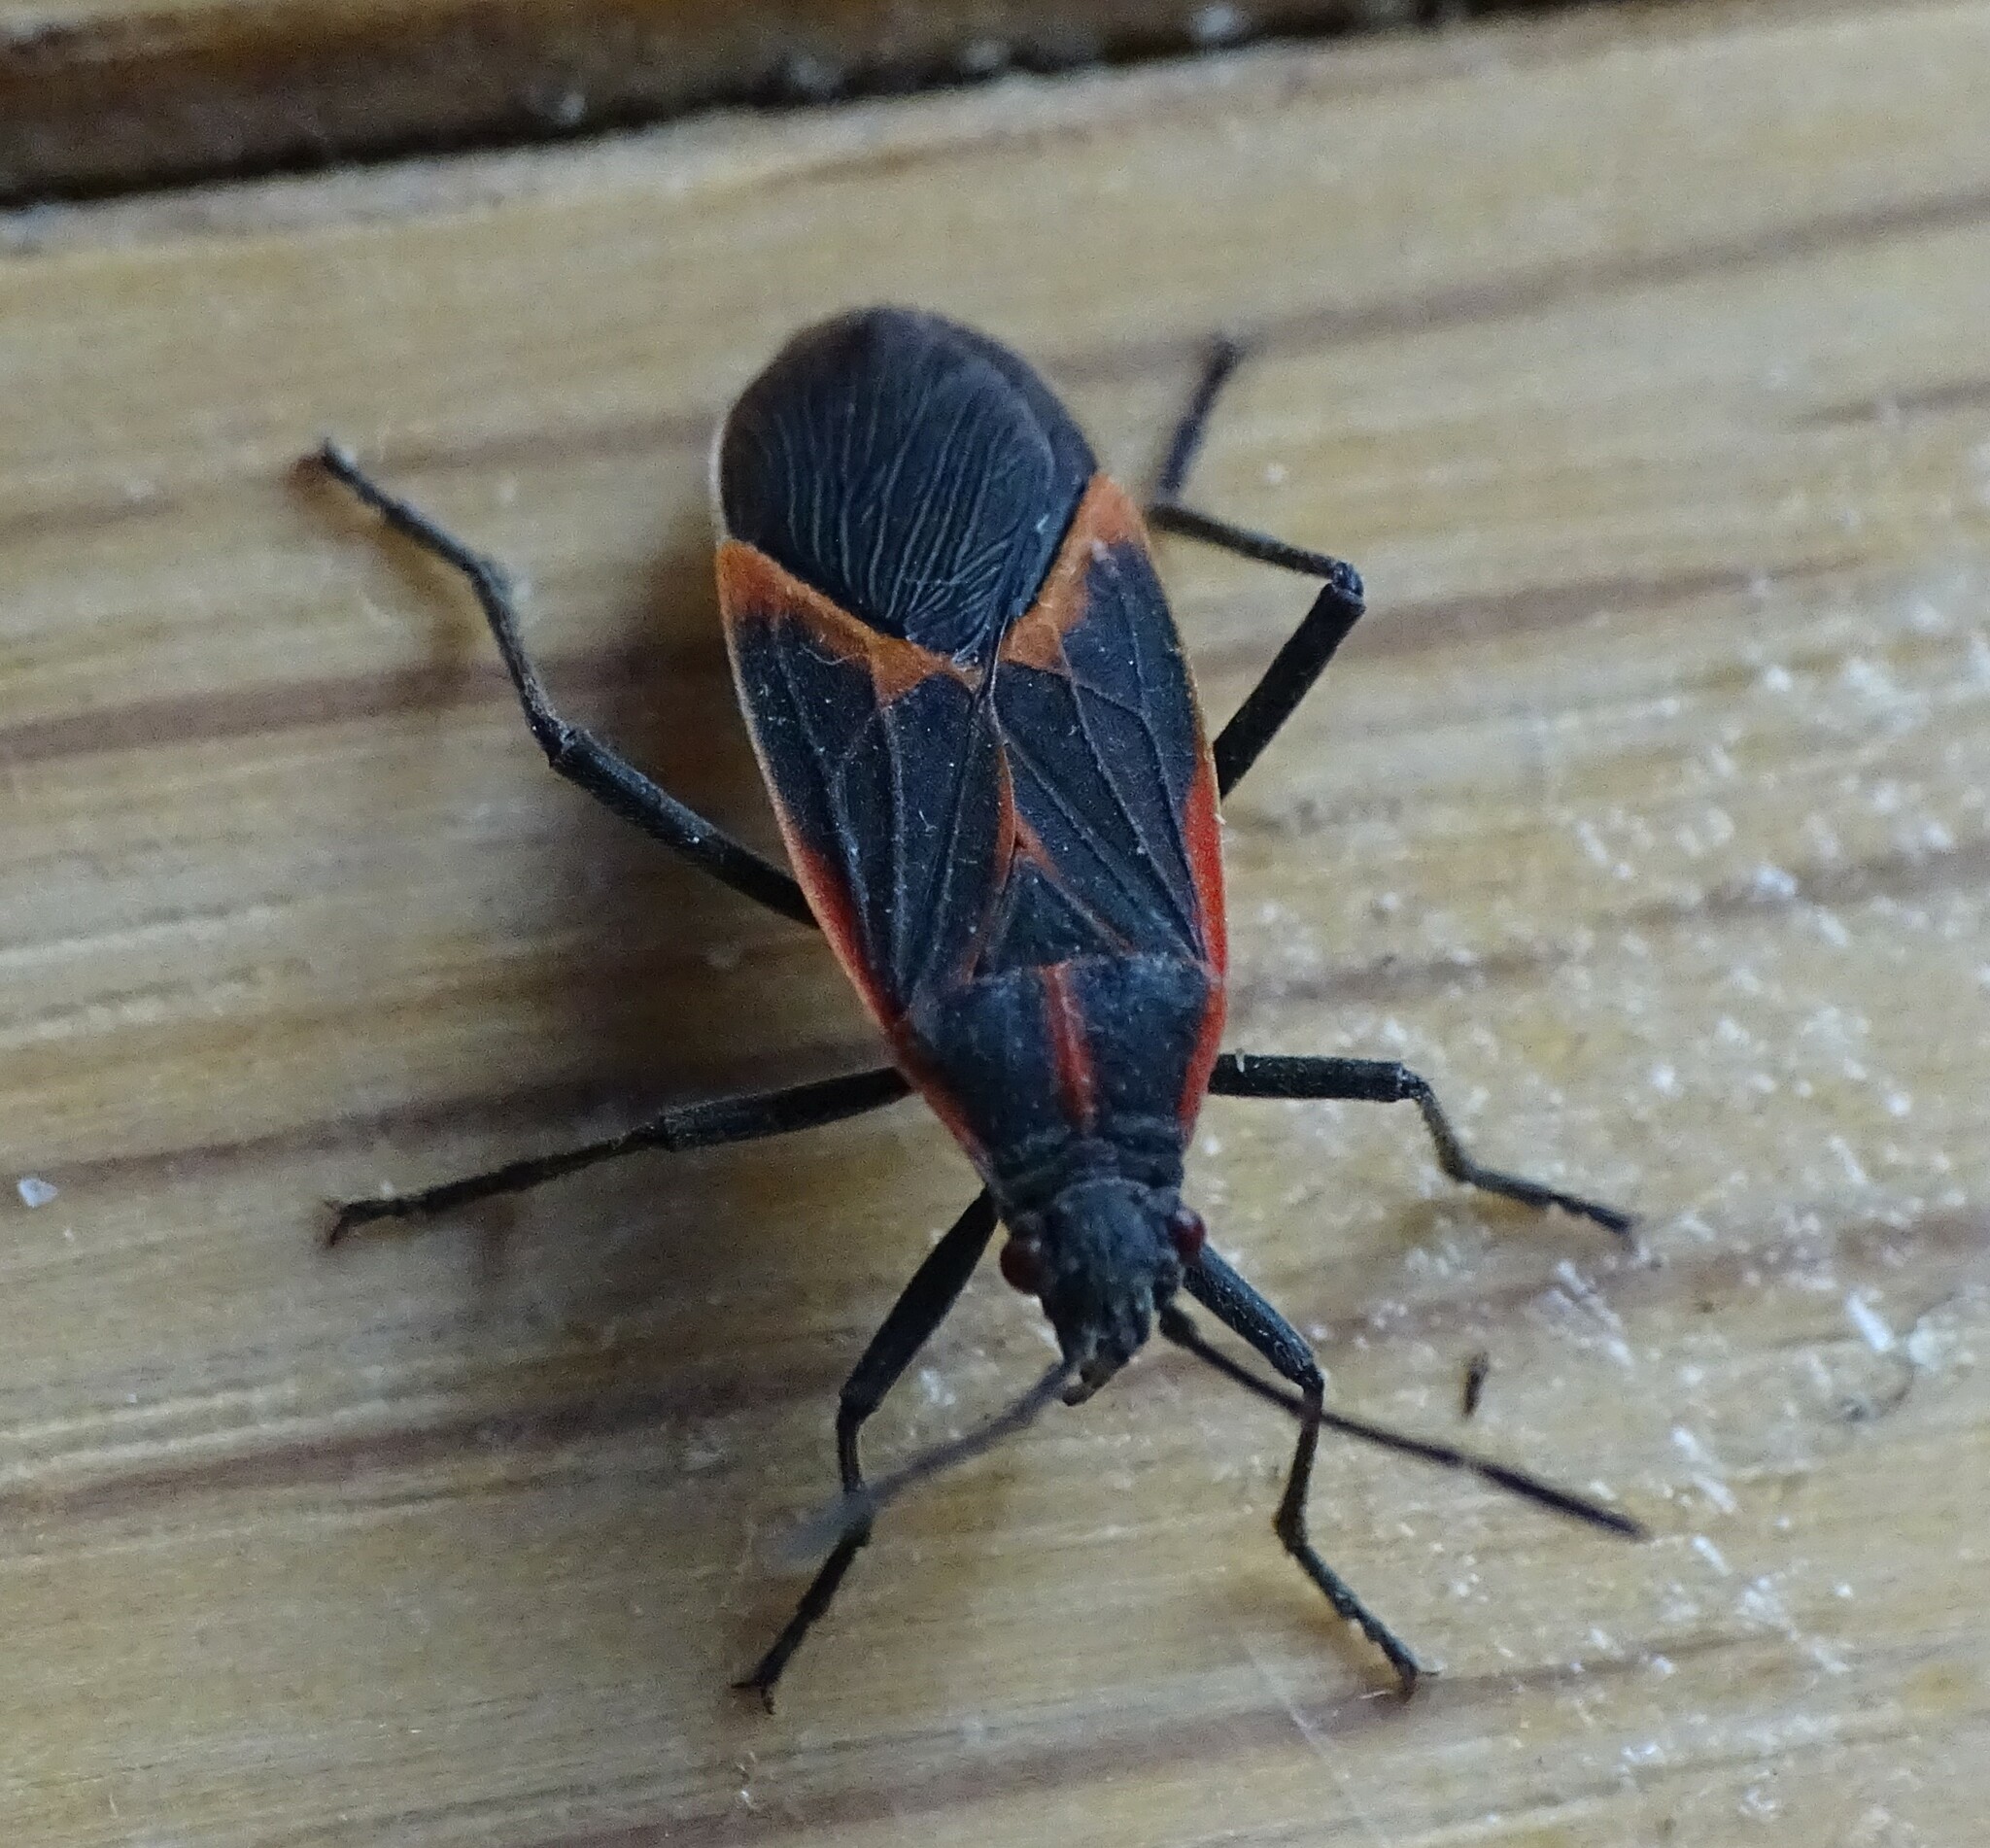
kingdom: Animalia
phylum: Arthropoda
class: Insecta
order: Hemiptera
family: Rhopalidae
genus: Boisea
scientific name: Boisea trivittata
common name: Boxelder bug
